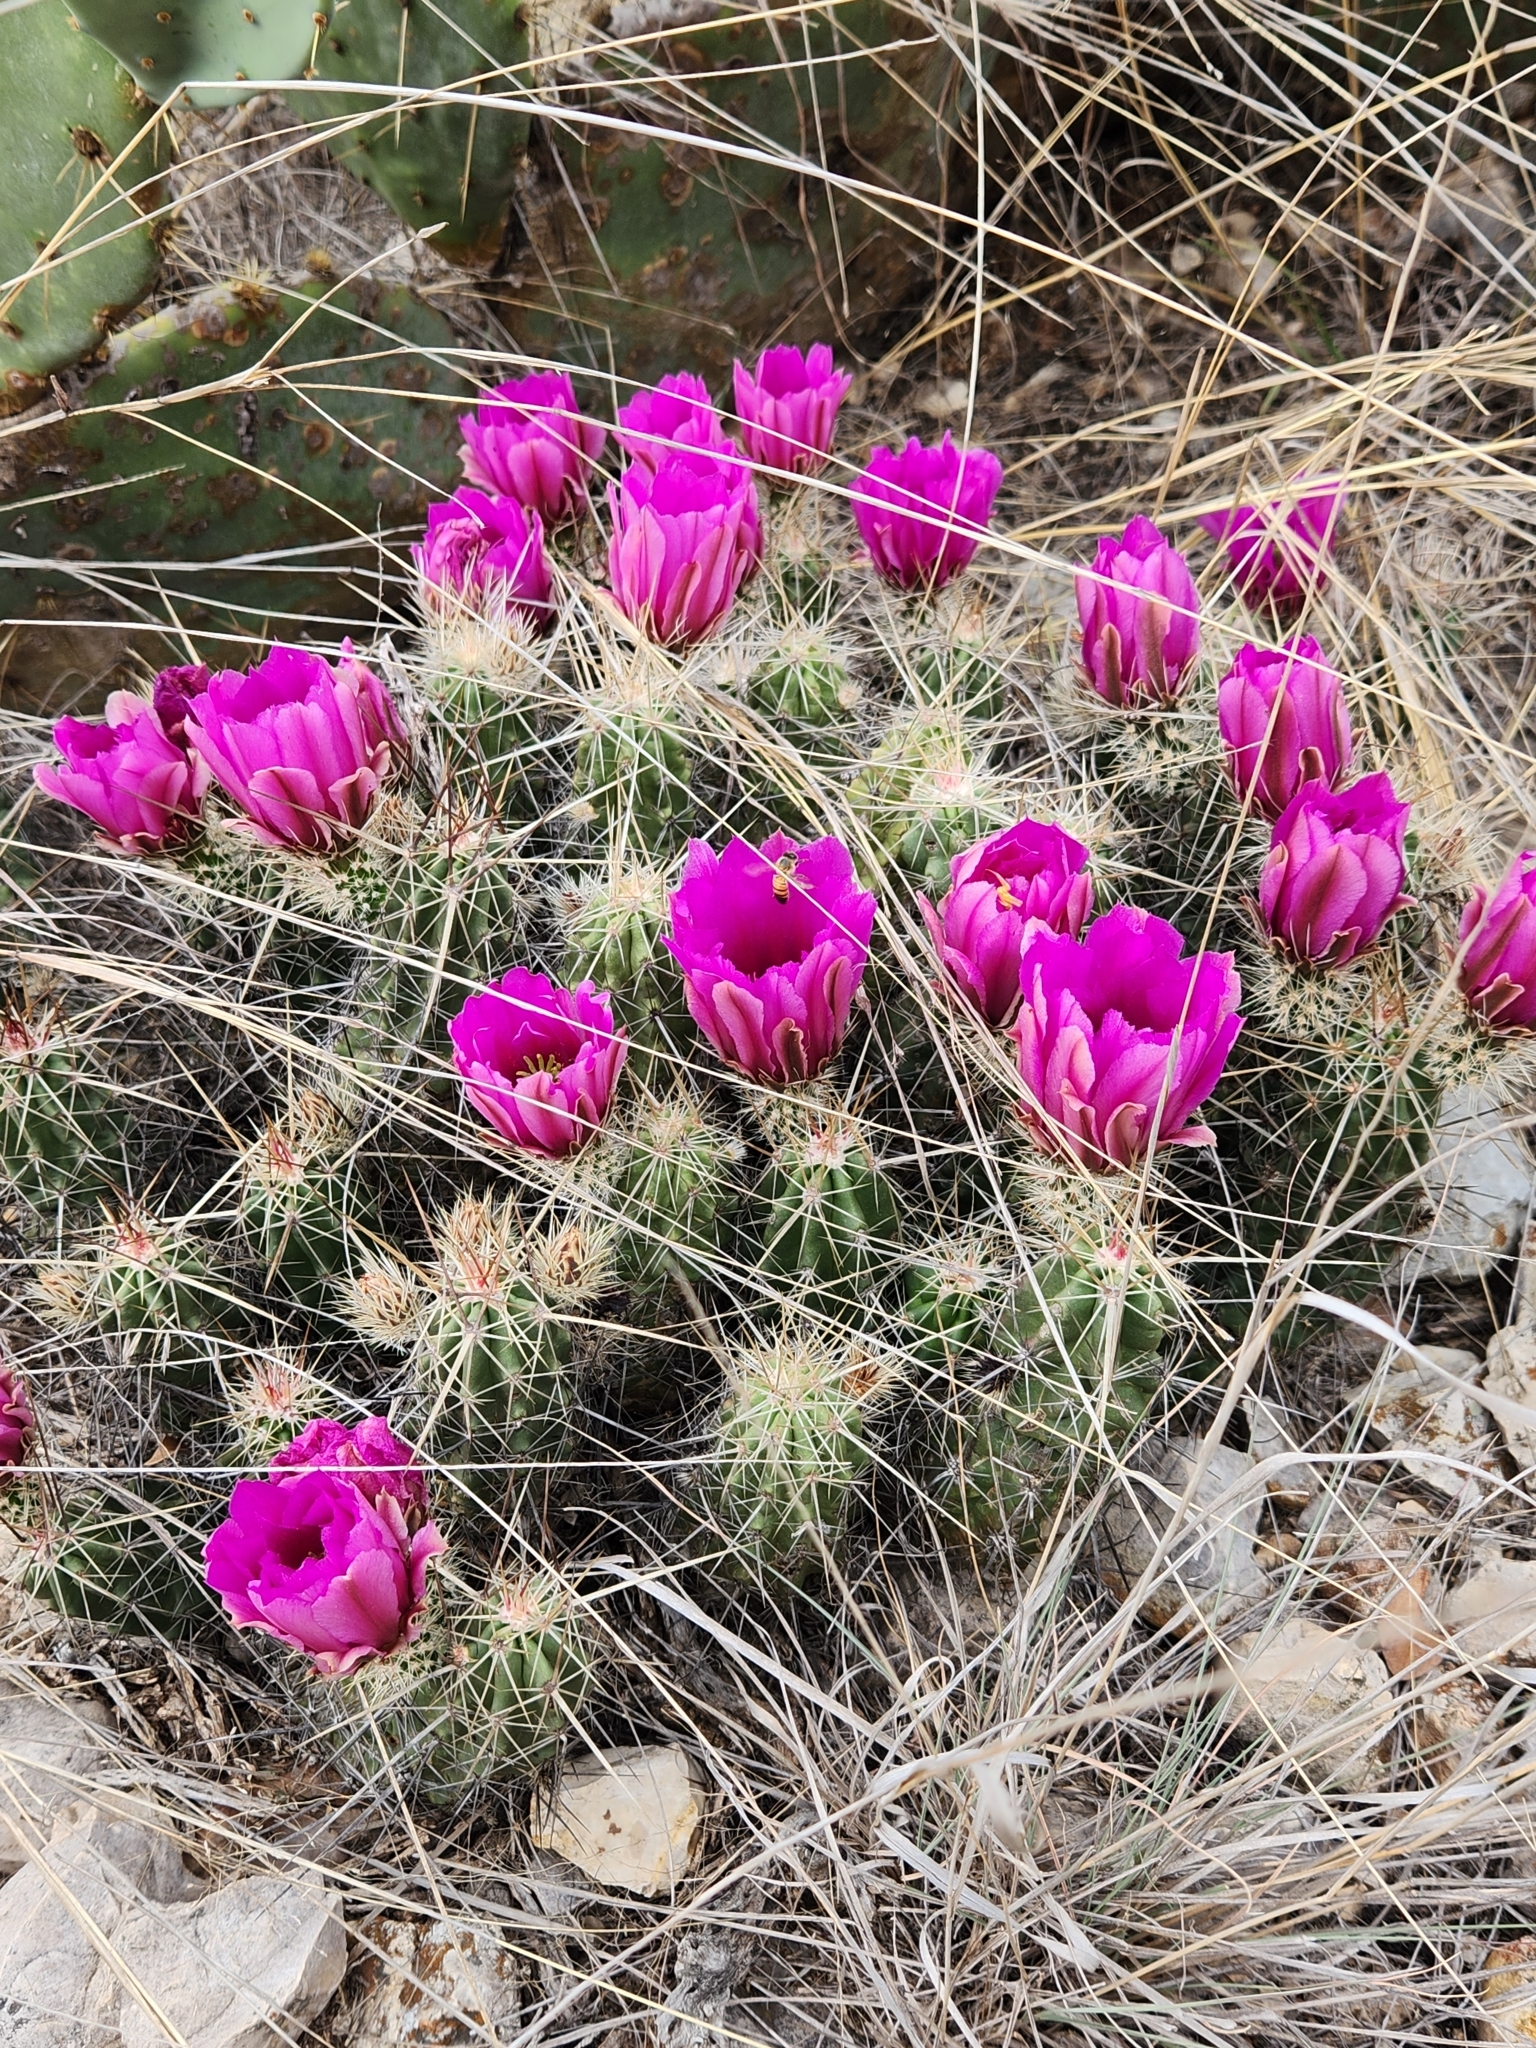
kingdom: Plantae
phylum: Tracheophyta
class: Magnoliopsida
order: Caryophyllales
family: Cactaceae
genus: Echinocereus
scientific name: Echinocereus enneacanthus
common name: Pitaya
